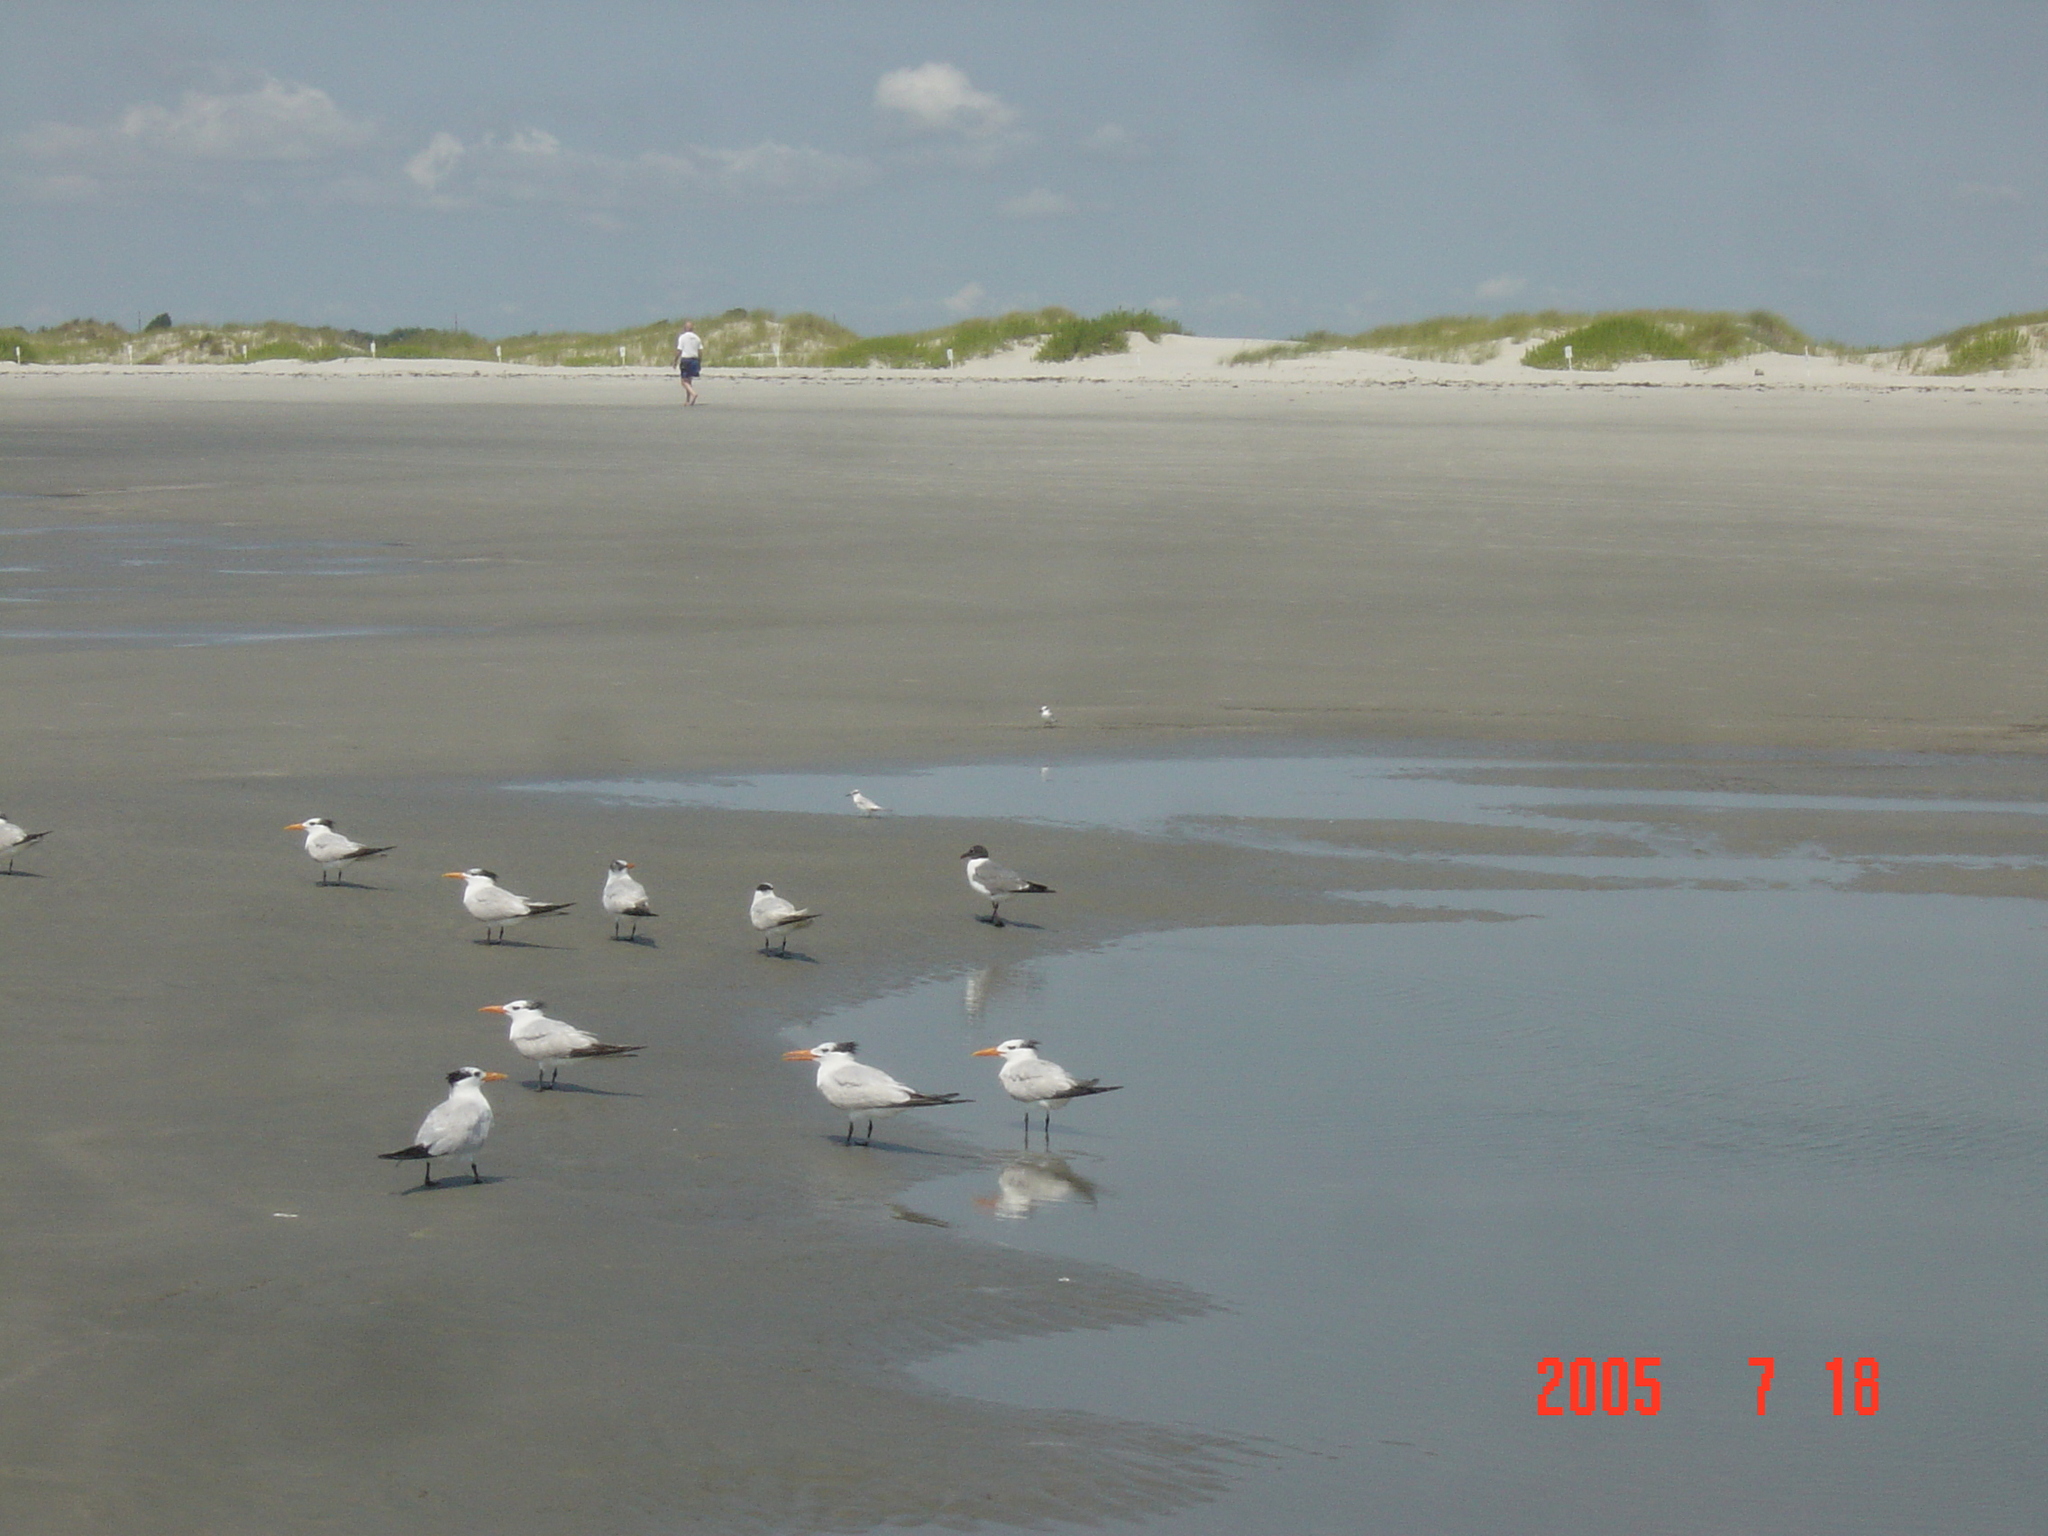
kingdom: Animalia
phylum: Chordata
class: Aves
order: Charadriiformes
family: Laridae
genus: Thalasseus
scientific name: Thalasseus maximus
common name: Royal tern
